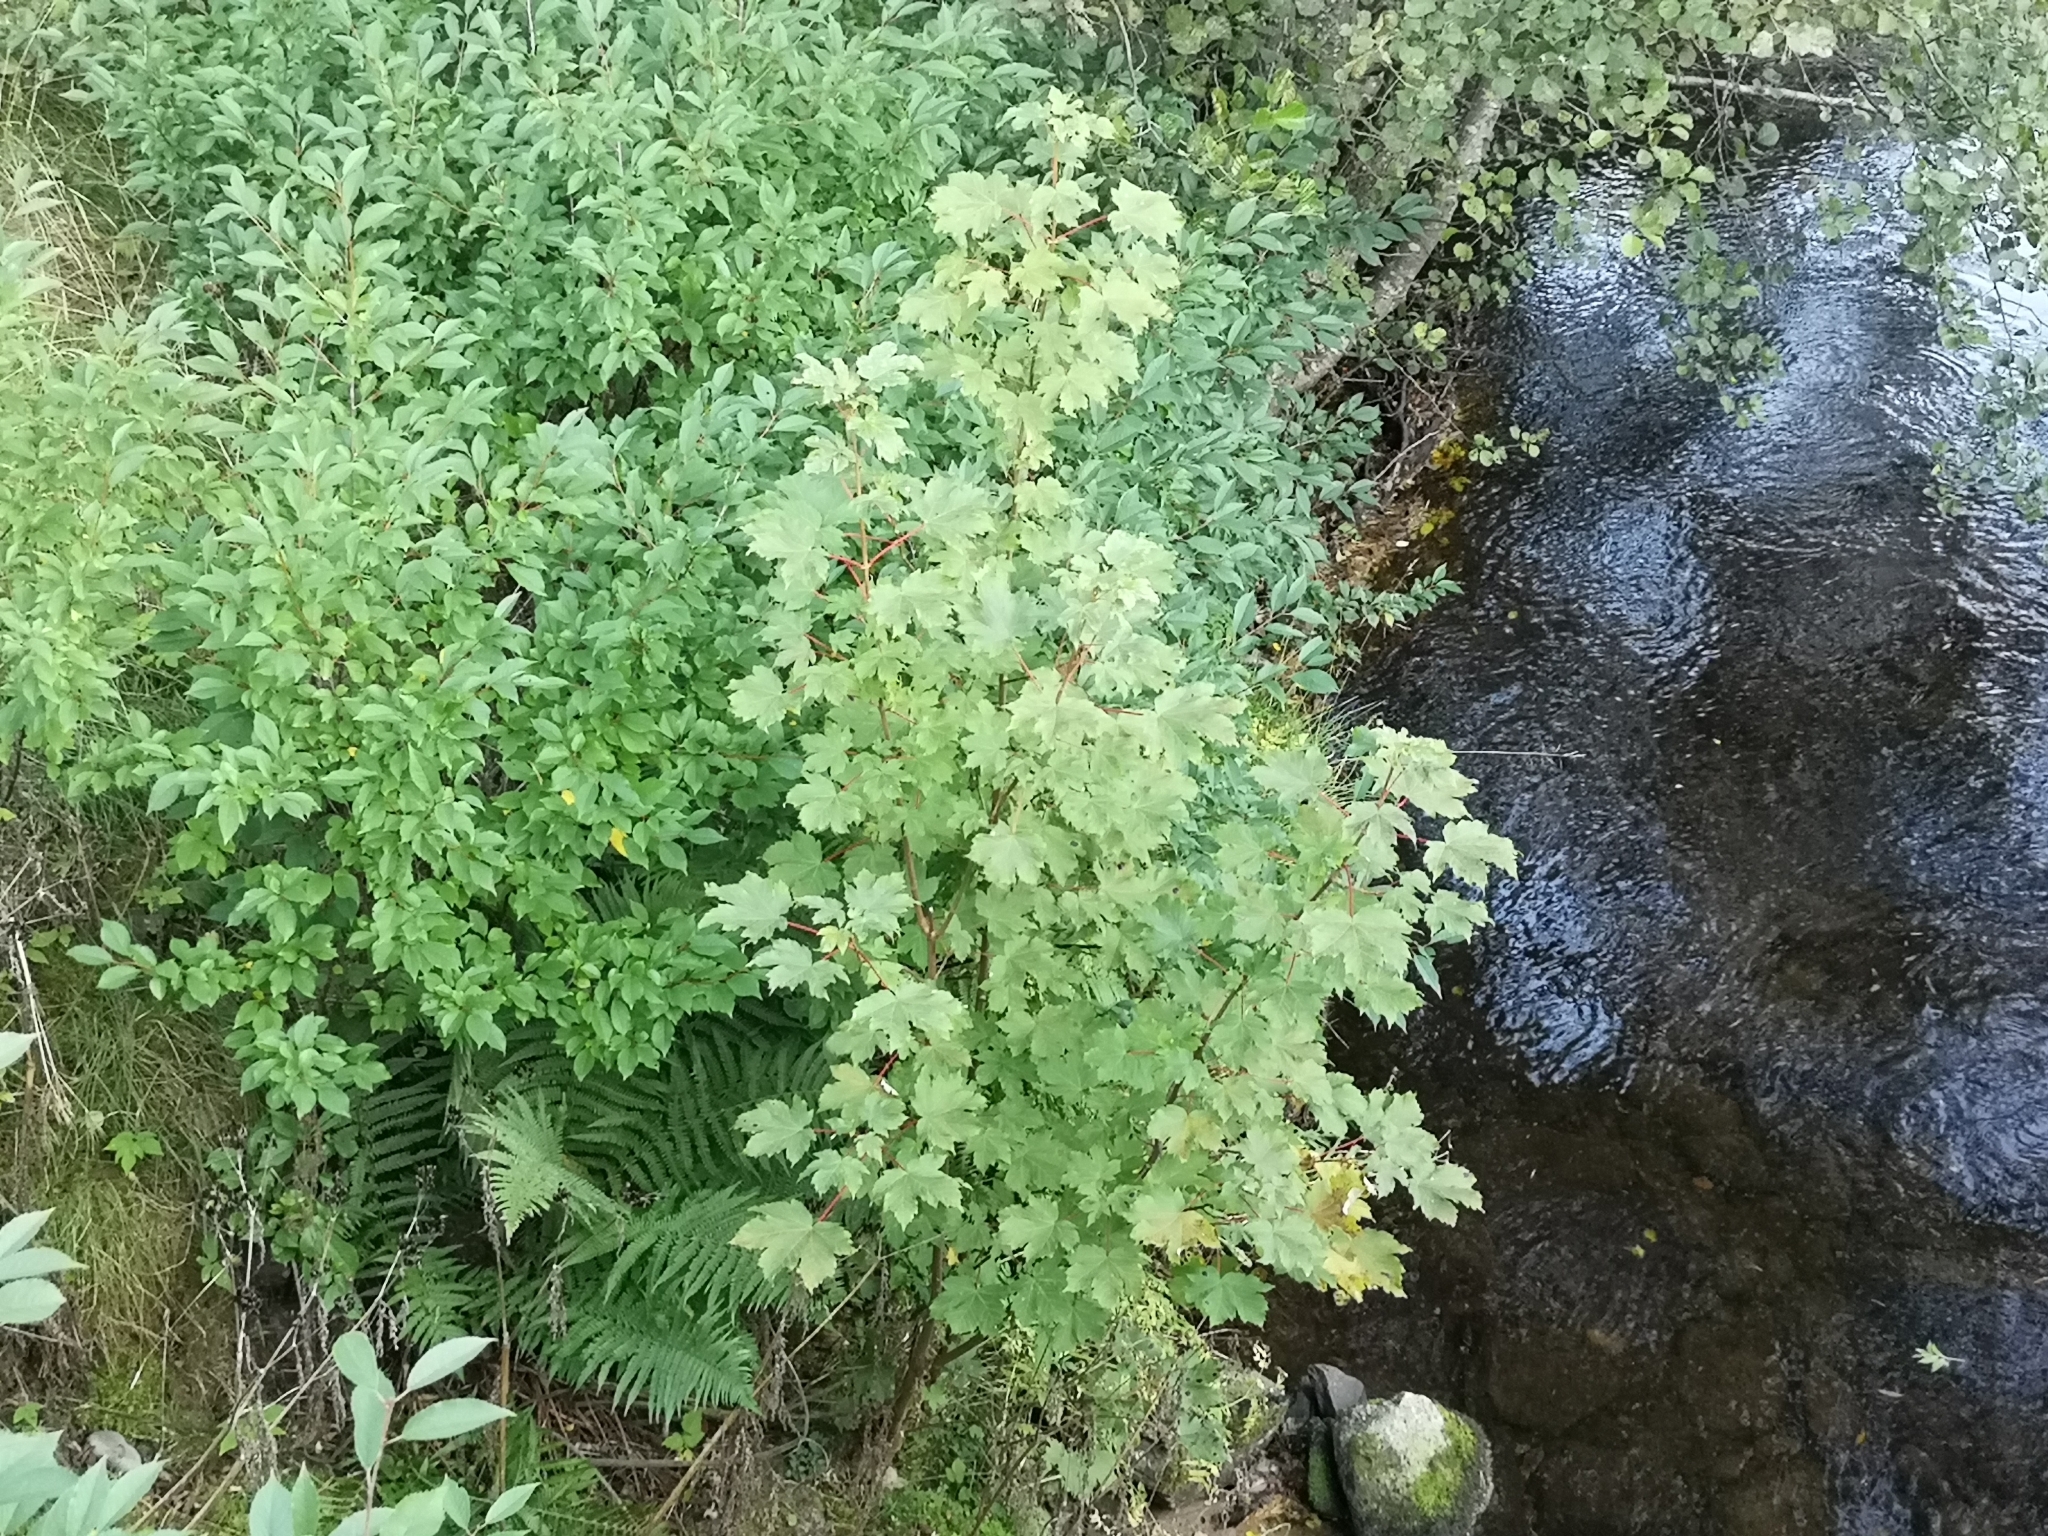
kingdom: Plantae
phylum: Tracheophyta
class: Magnoliopsida
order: Sapindales
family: Sapindaceae
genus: Acer
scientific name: Acer pseudoplatanus
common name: Sycamore
